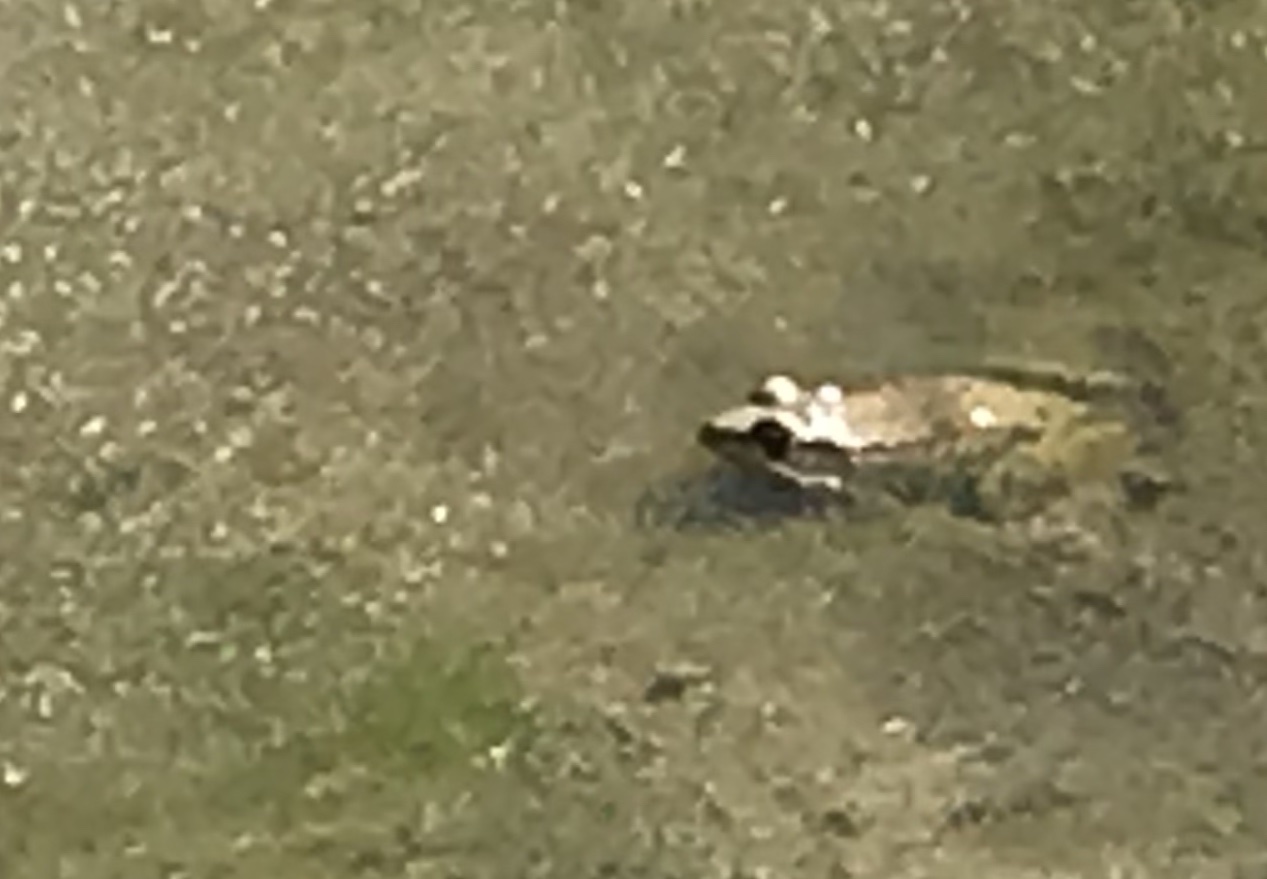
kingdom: Animalia
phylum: Chordata
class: Amphibia
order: Anura
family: Ranidae
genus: Lithobates
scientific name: Lithobates clamitans
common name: Green frog
